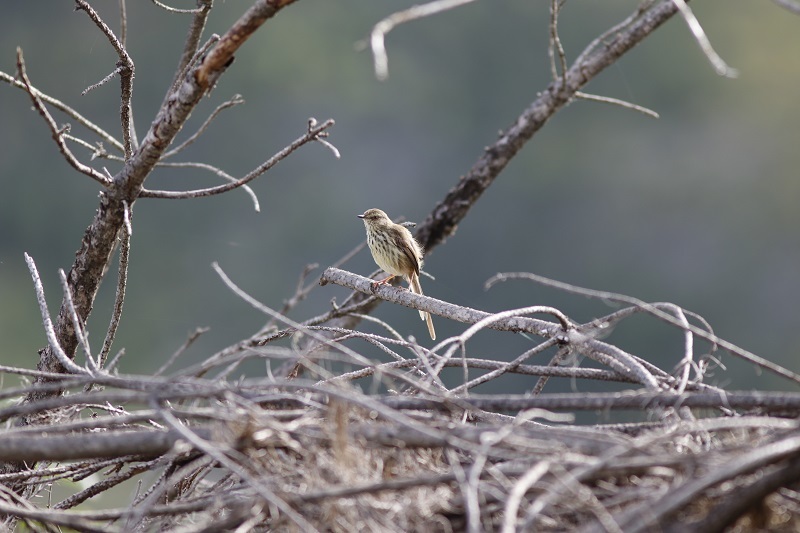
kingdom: Animalia
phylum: Chordata
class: Aves
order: Passeriformes
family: Cisticolidae
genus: Prinia
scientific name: Prinia maculosa
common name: Karoo prinia
